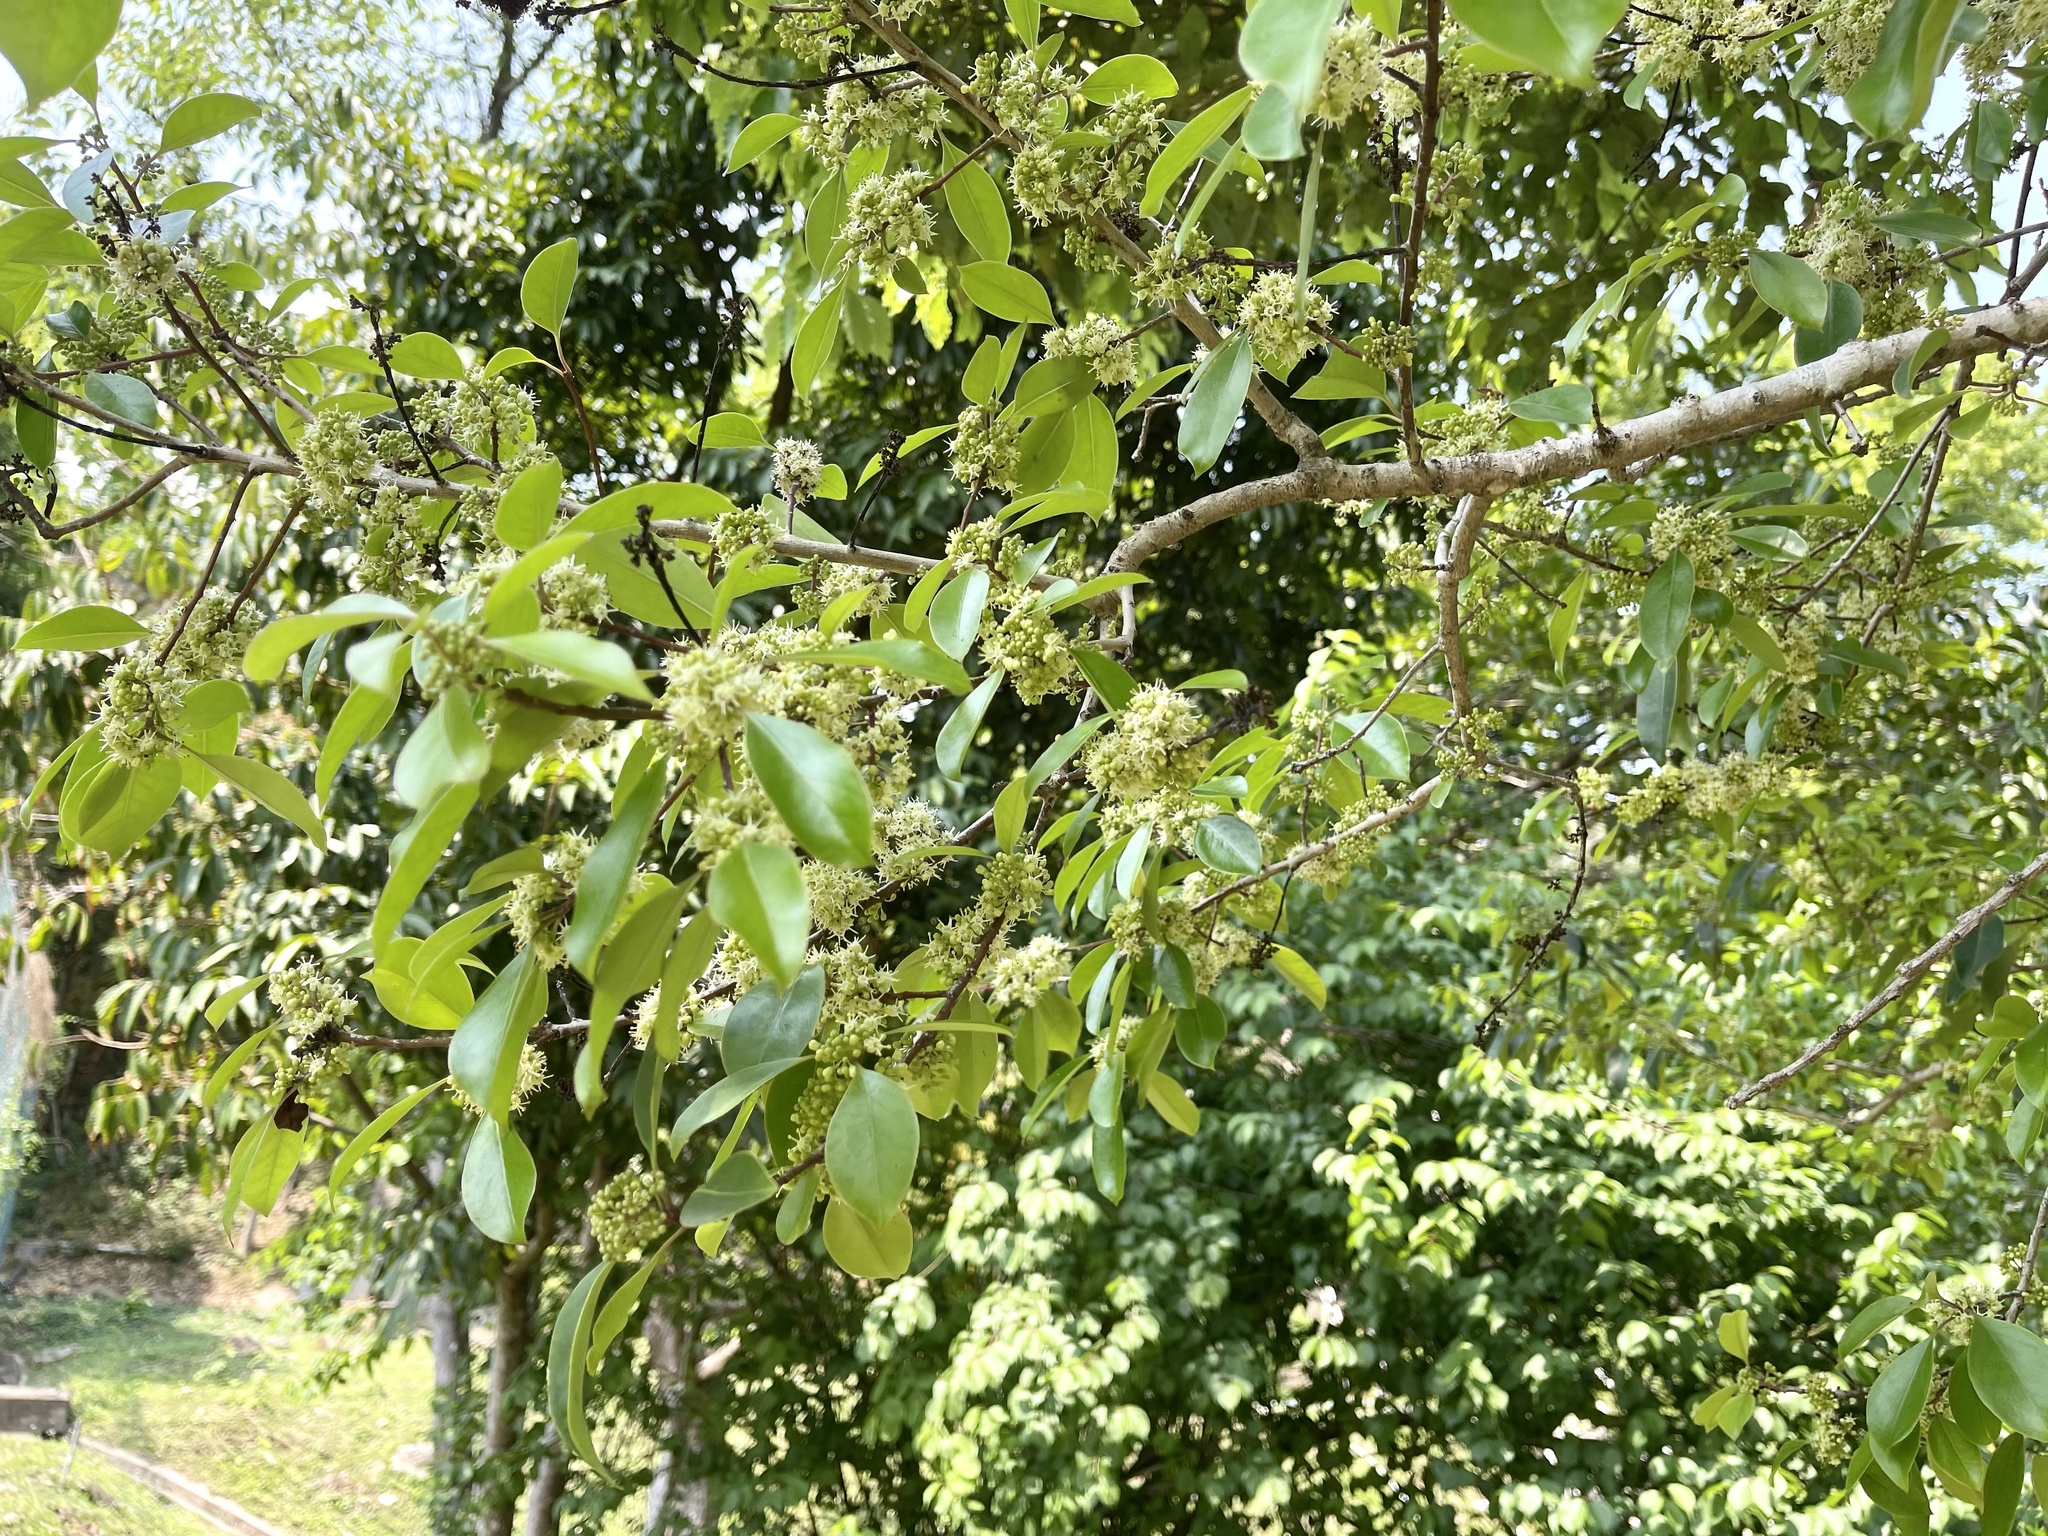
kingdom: Plantae
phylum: Tracheophyta
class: Magnoliopsida
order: Aquifoliales
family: Aquifoliaceae
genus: Ilex
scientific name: Ilex rotunda
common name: Kurogane holly
